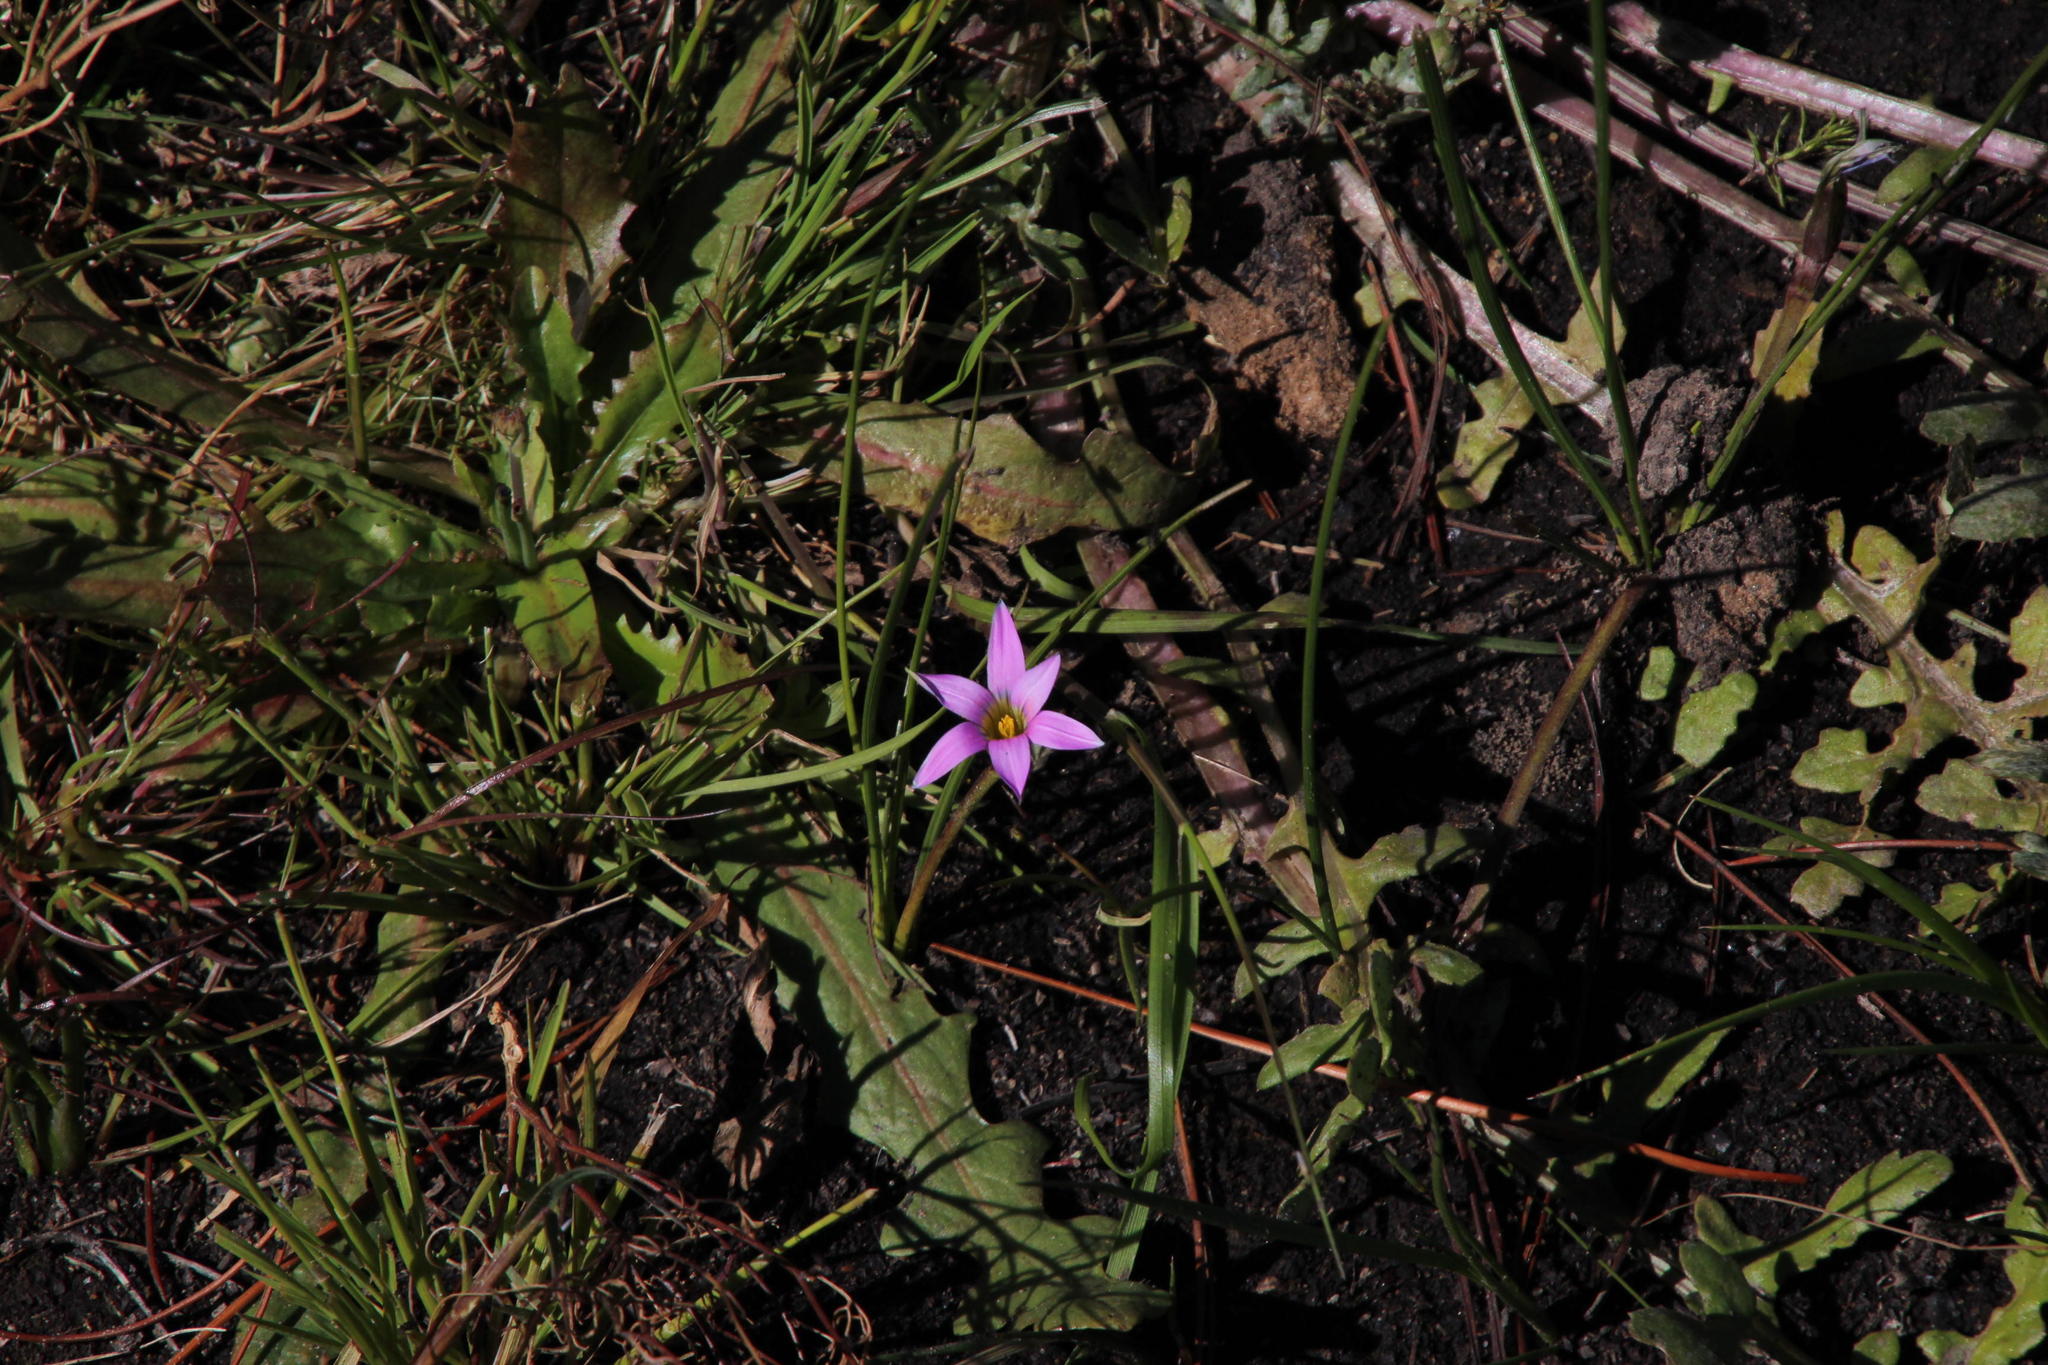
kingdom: Plantae
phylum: Tracheophyta
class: Liliopsida
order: Asparagales
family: Iridaceae
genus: Romulea
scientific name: Romulea rosea
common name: Oniongrass
